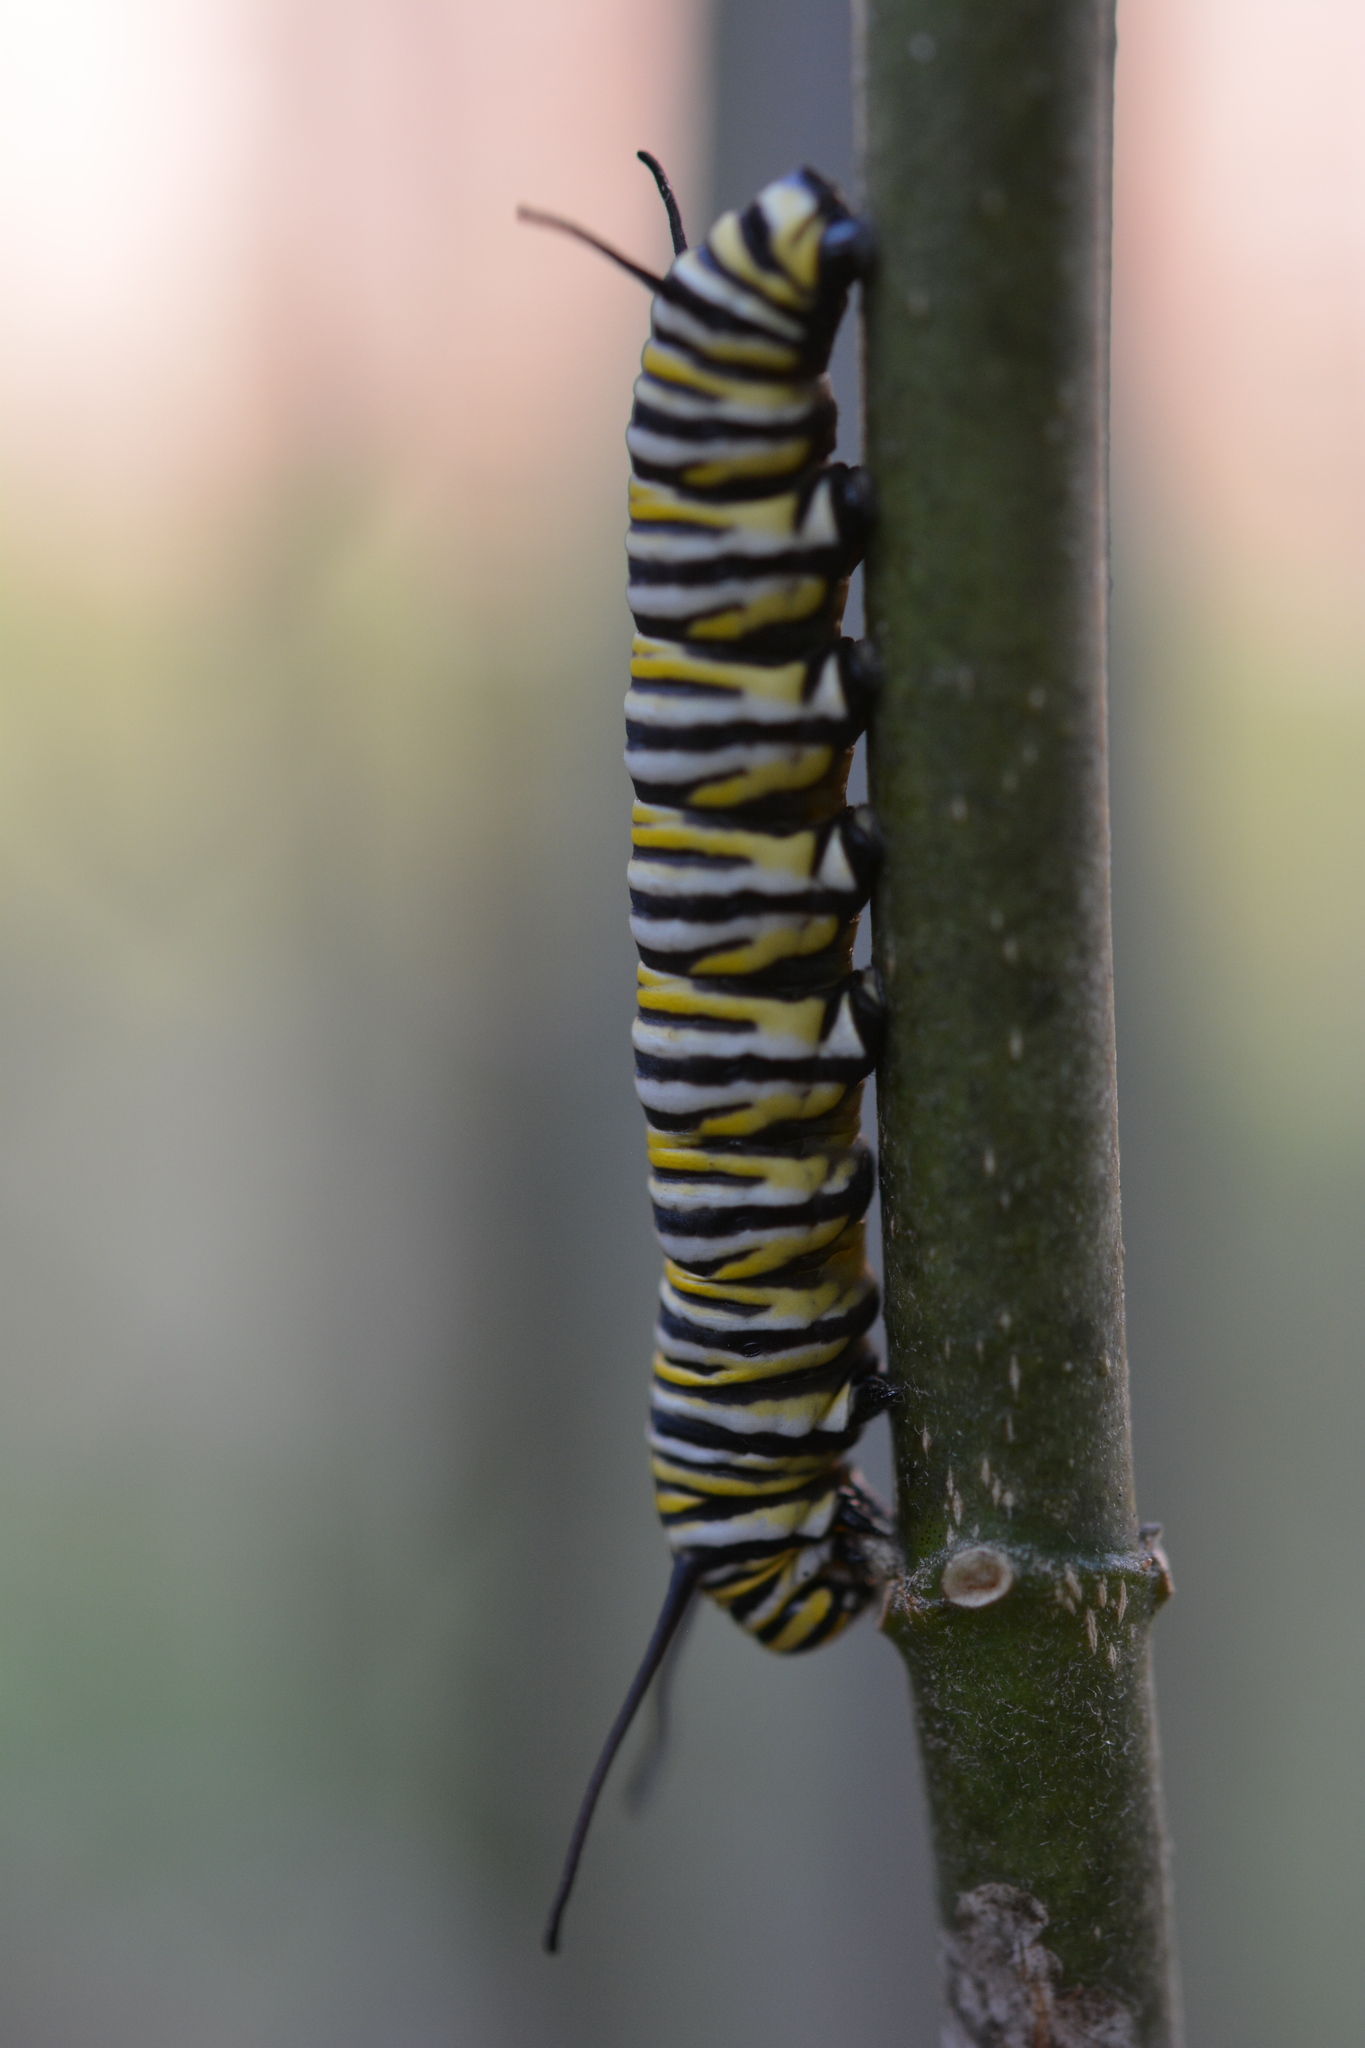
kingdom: Animalia
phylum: Arthropoda
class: Insecta
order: Lepidoptera
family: Nymphalidae
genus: Danaus
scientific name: Danaus plexippus
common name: Monarch
